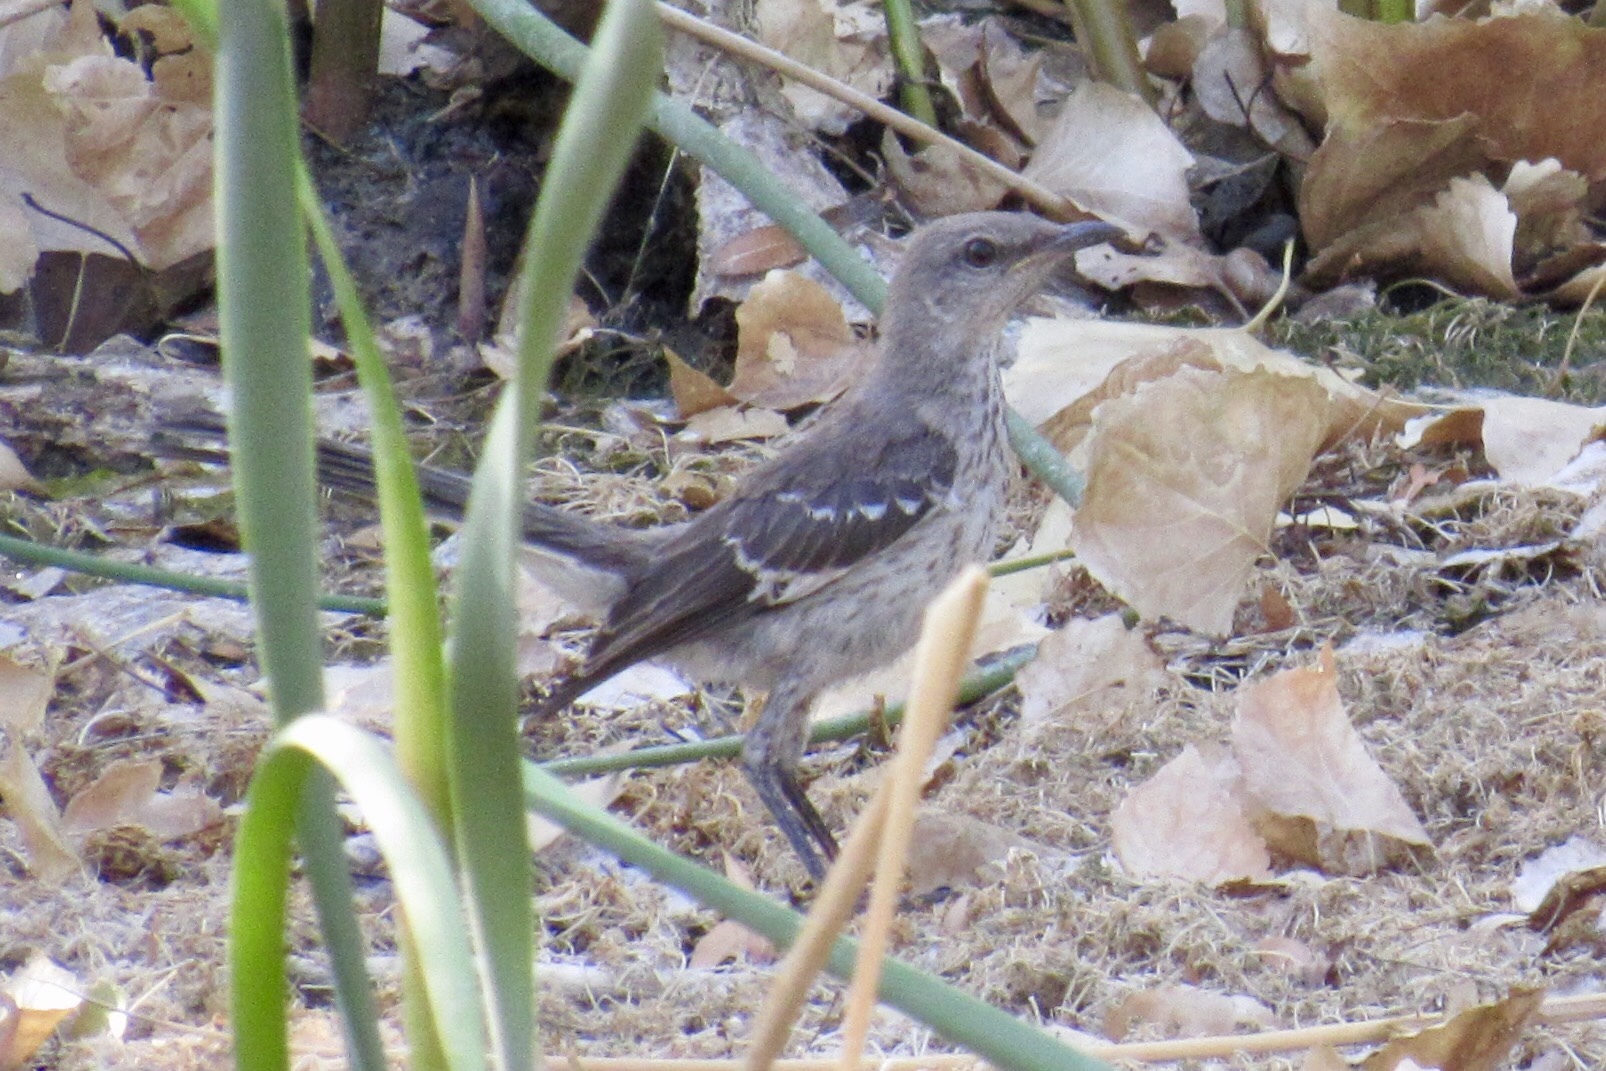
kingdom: Animalia
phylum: Chordata
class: Aves
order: Passeriformes
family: Mimidae
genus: Mimus
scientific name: Mimus polyglottos
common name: Northern mockingbird
